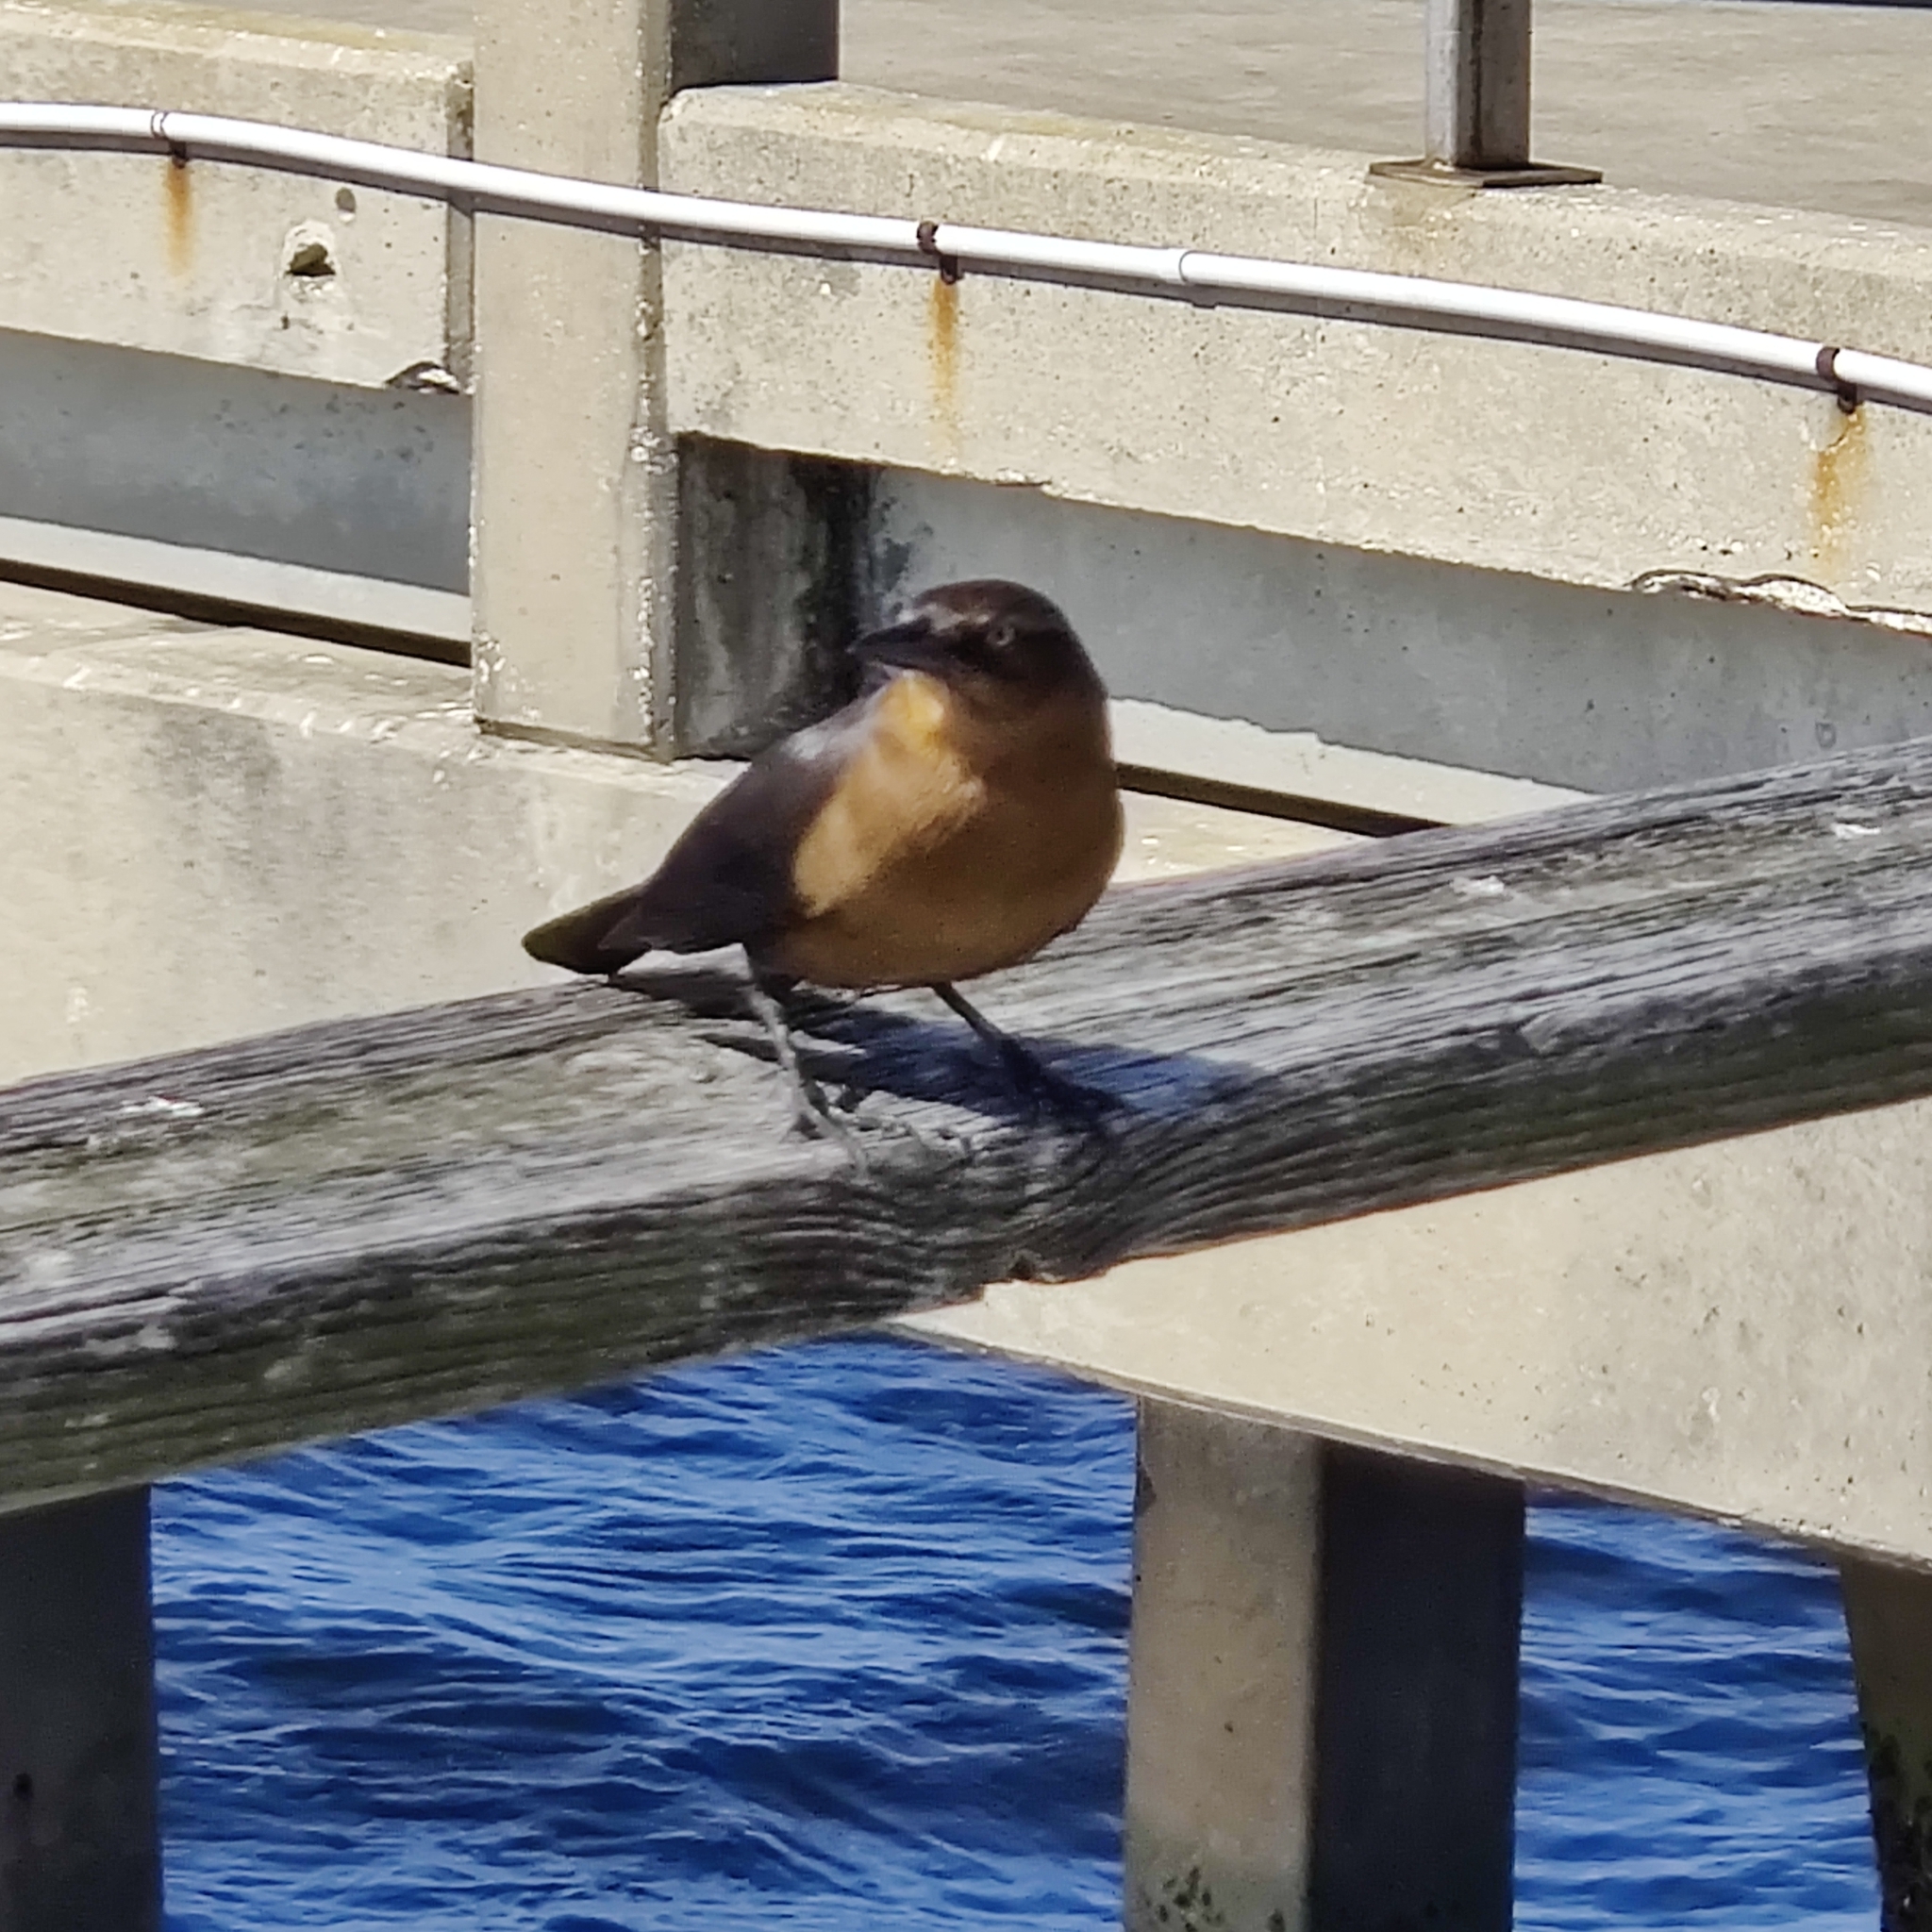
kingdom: Animalia
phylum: Chordata
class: Aves
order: Passeriformes
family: Icteridae
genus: Quiscalus
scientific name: Quiscalus major
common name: Boat-tailed grackle
